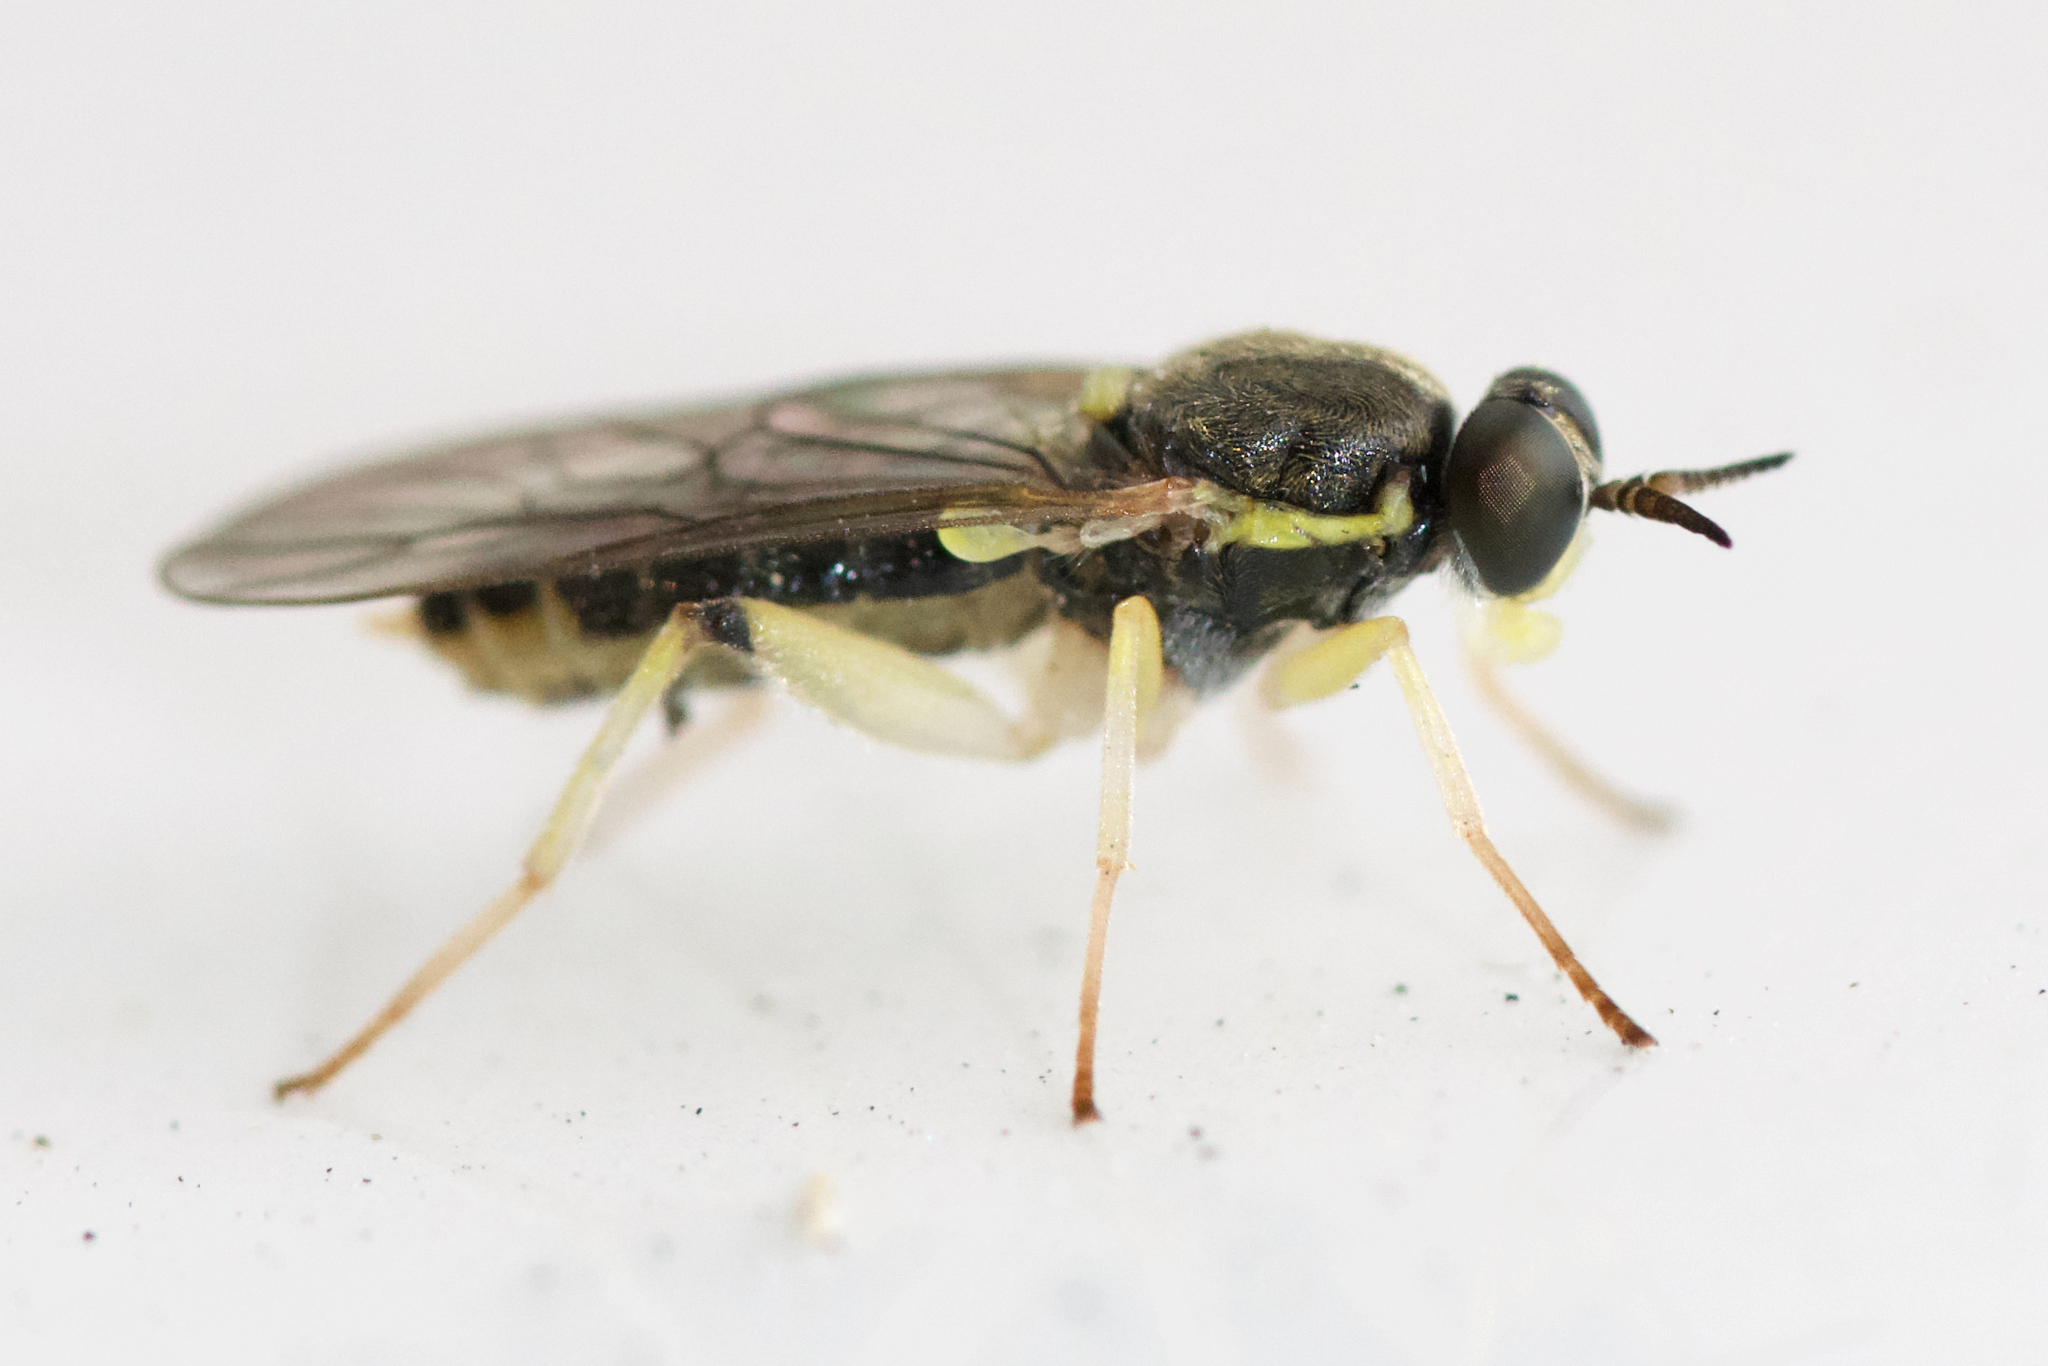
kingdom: Animalia
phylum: Arthropoda
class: Insecta
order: Diptera
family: Xylomyidae
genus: Solva
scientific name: Solva pallipes
